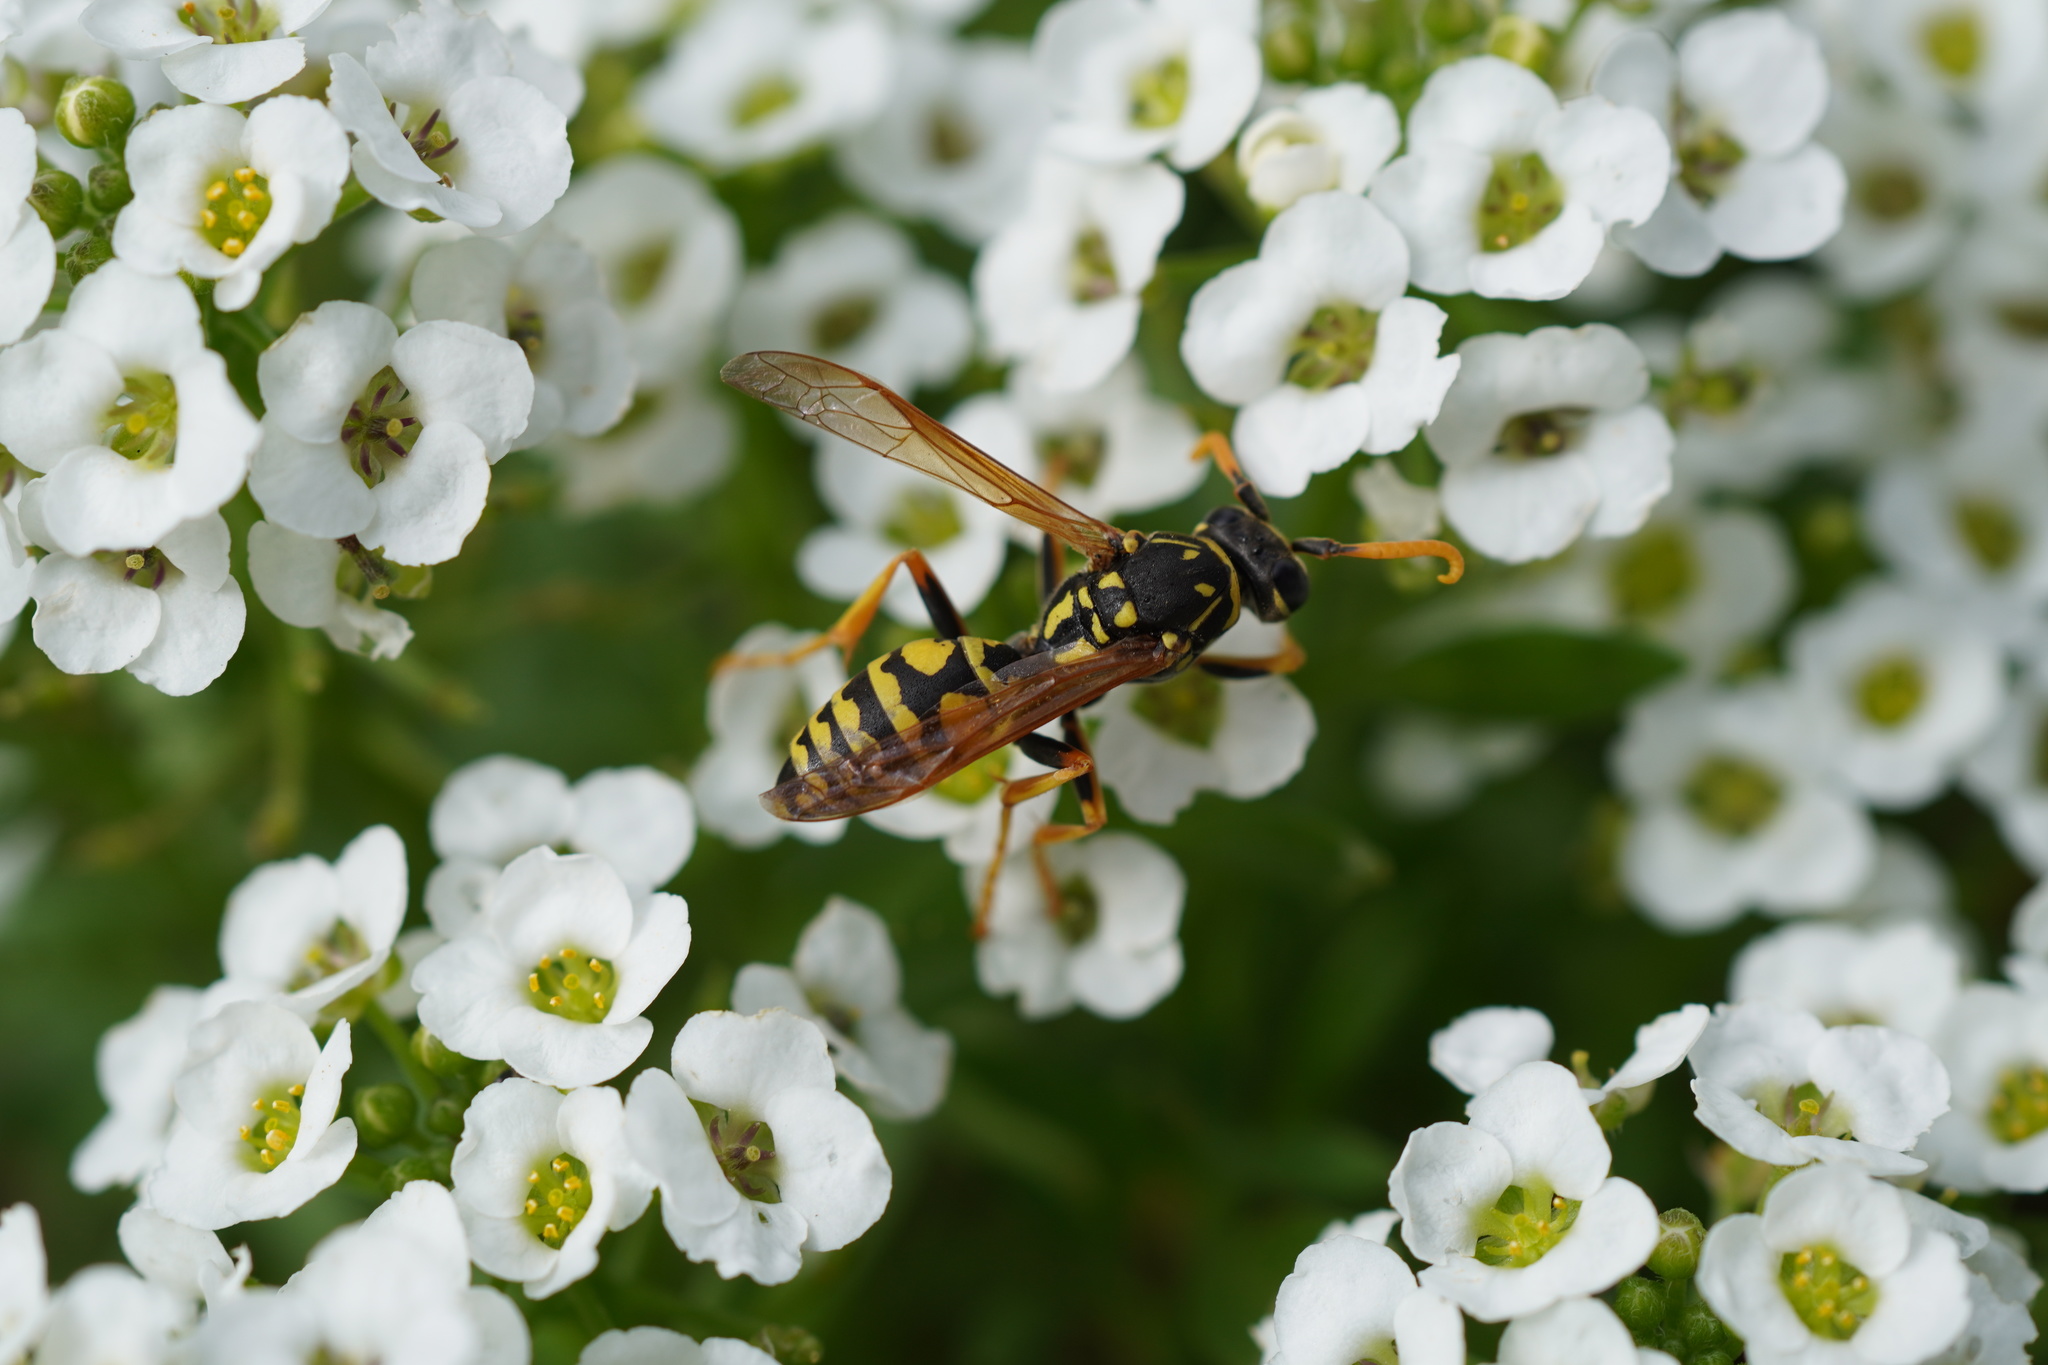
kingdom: Animalia
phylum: Arthropoda
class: Insecta
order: Hymenoptera
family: Eumenidae
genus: Polistes
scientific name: Polistes dominula
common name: Paper wasp
